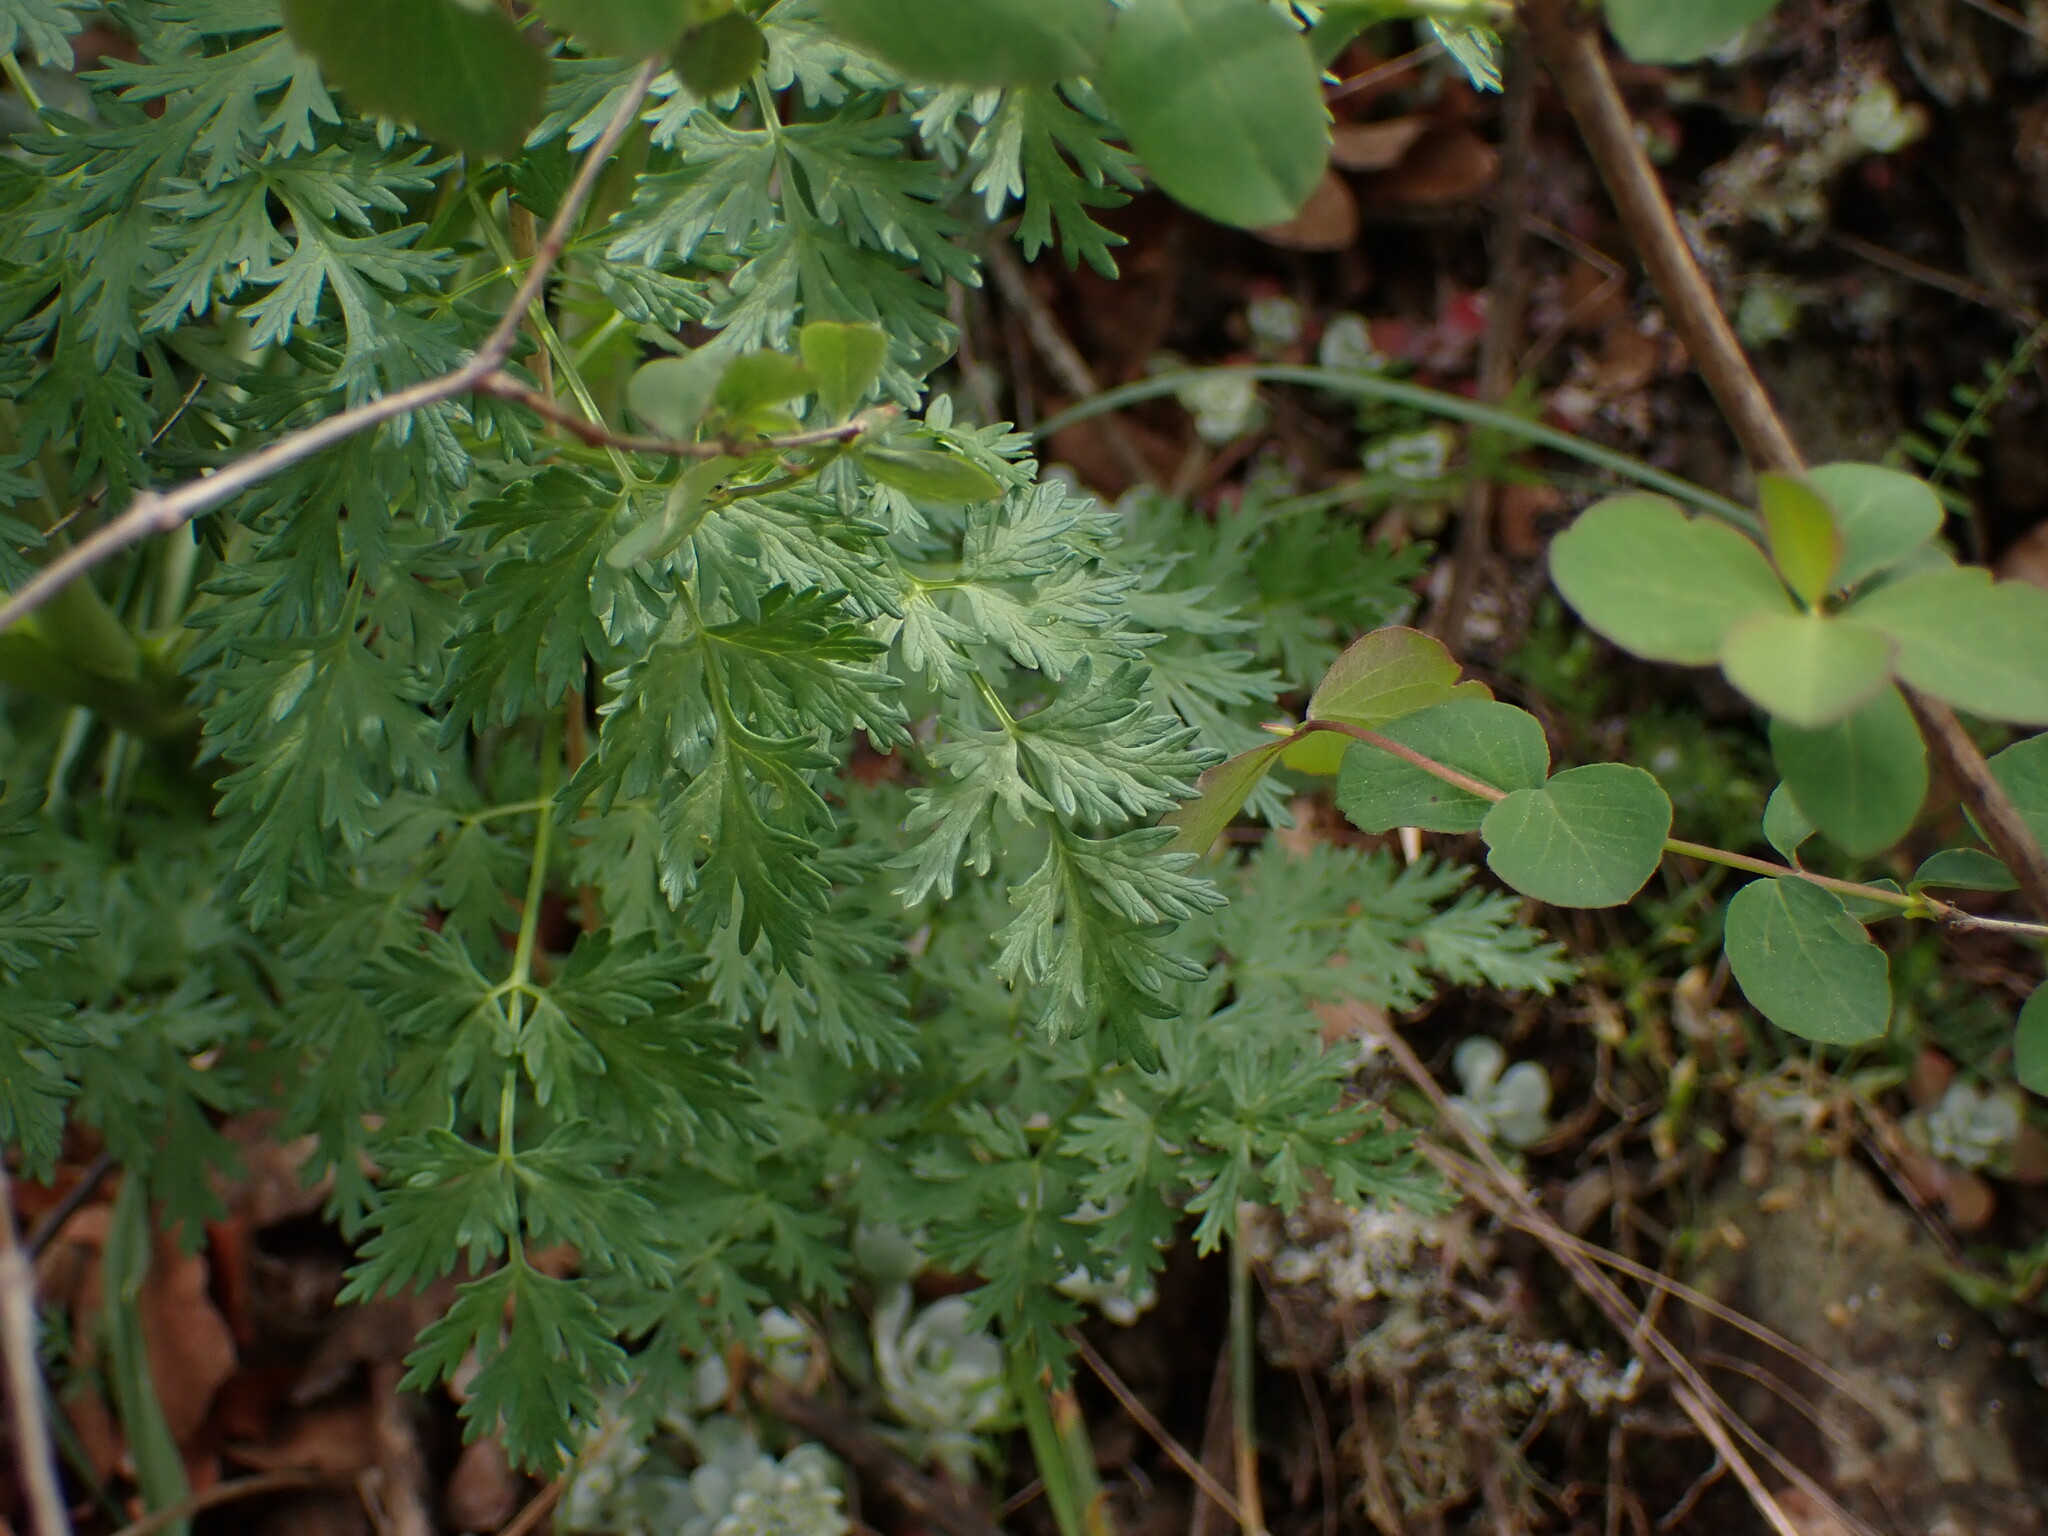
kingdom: Plantae
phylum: Tracheophyta
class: Magnoliopsida
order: Apiales
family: Apiaceae
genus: Lomatium
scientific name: Lomatium dissectum
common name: Lomatium
